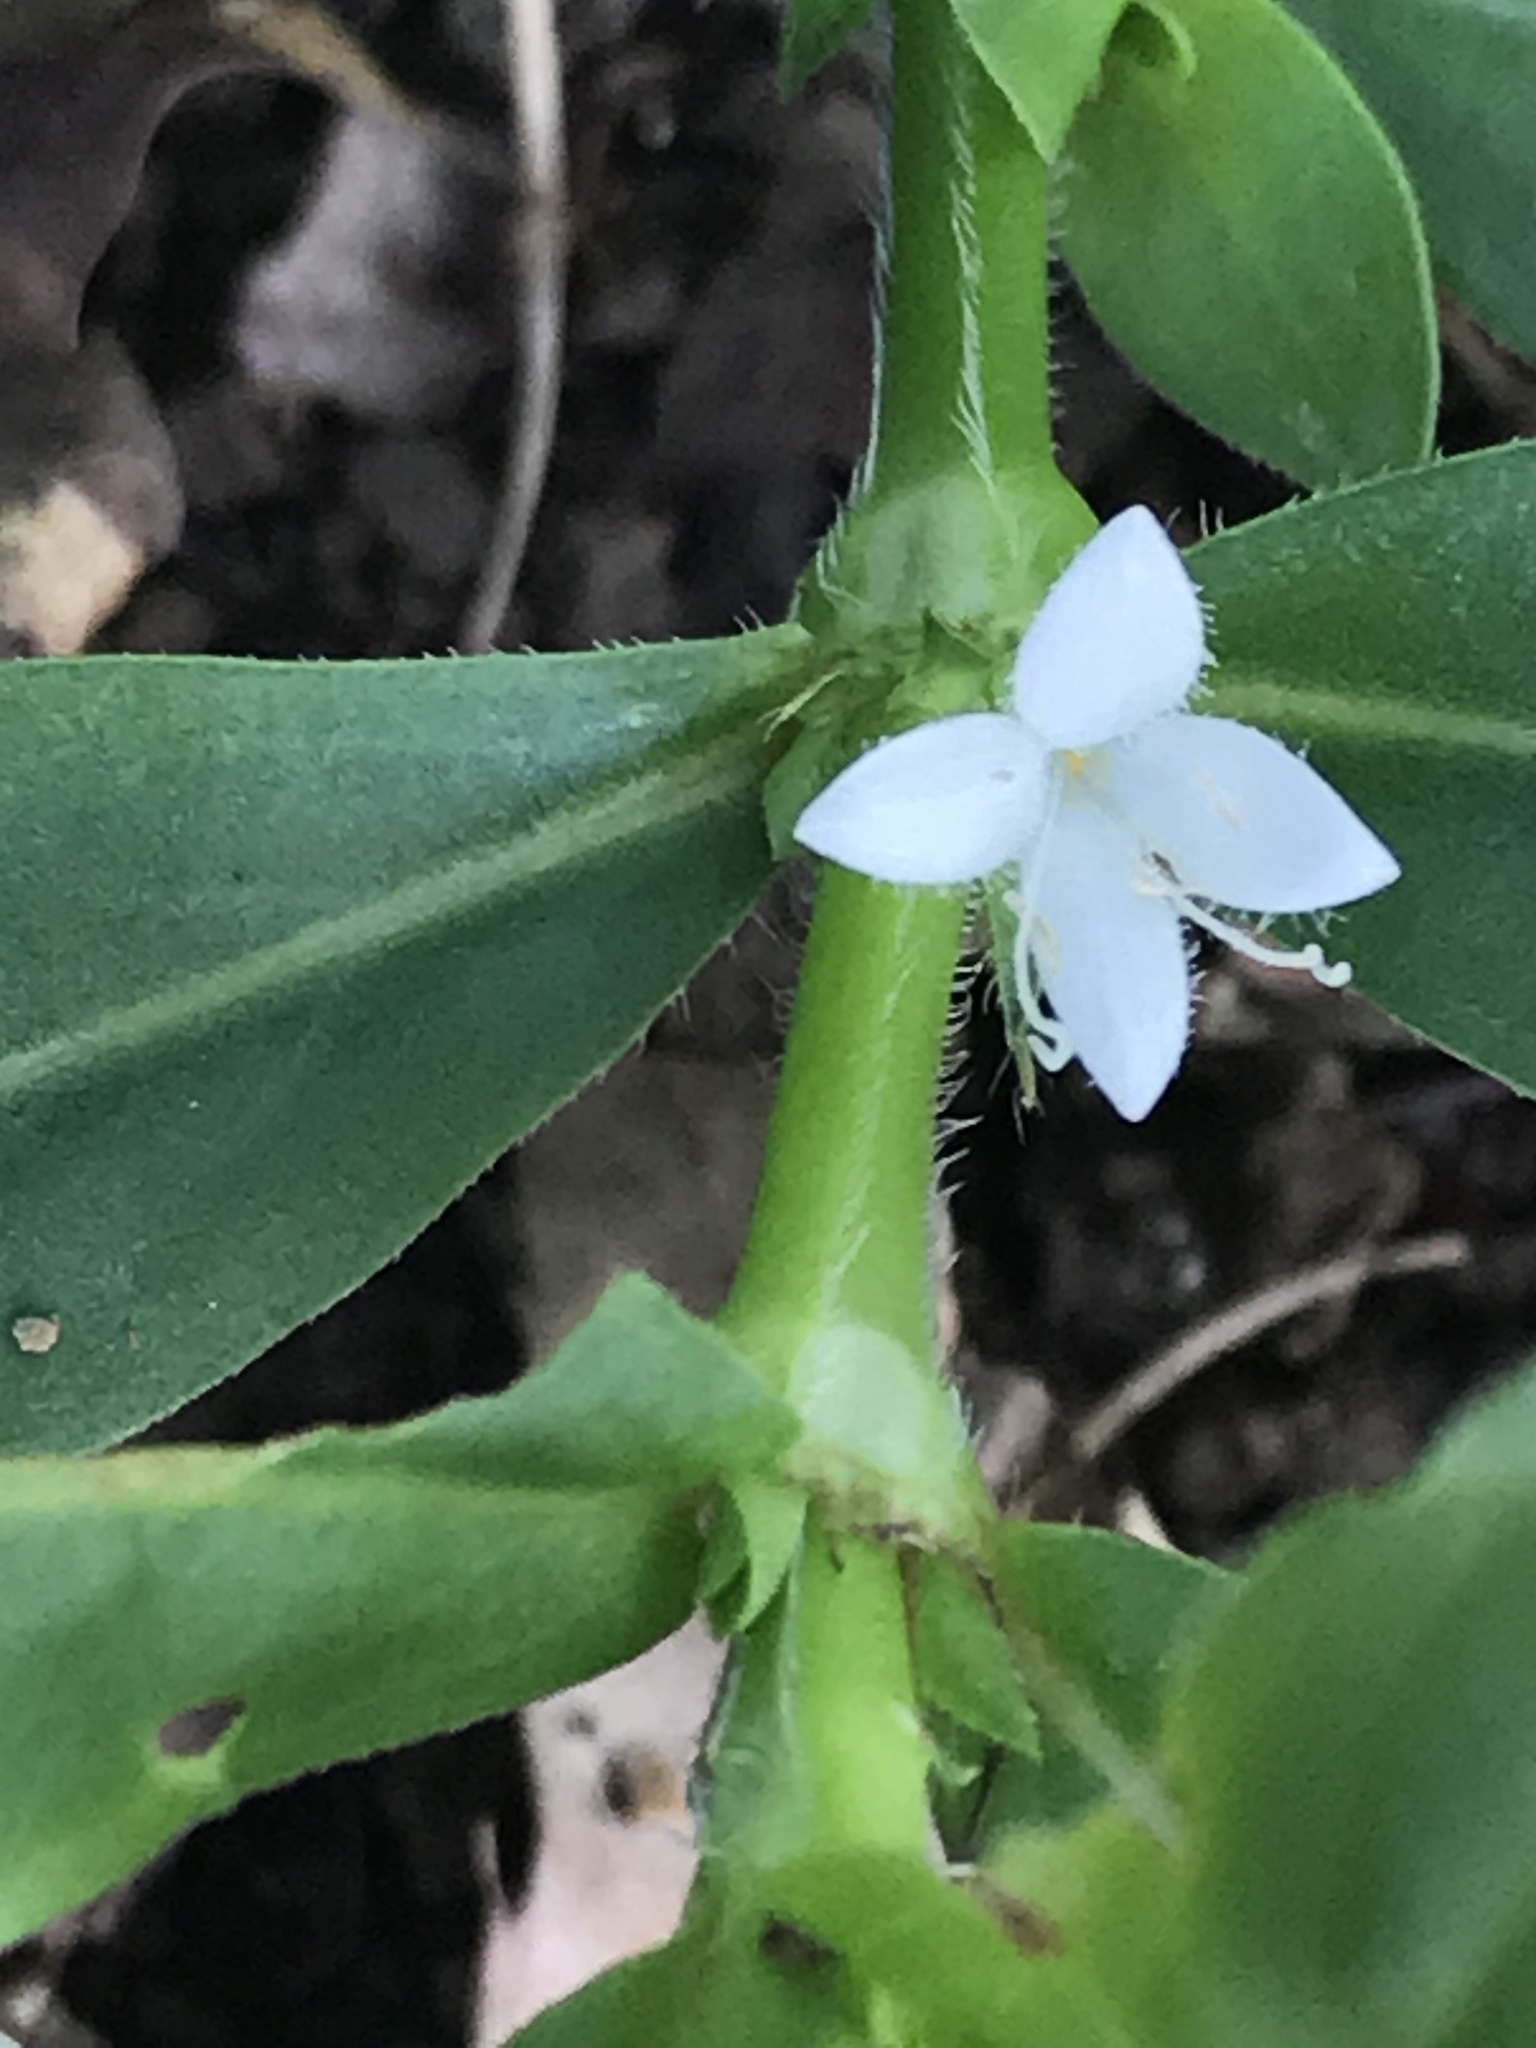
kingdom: Plantae
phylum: Tracheophyta
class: Magnoliopsida
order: Gentianales
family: Rubiaceae
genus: Diodia
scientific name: Diodia virginiana
